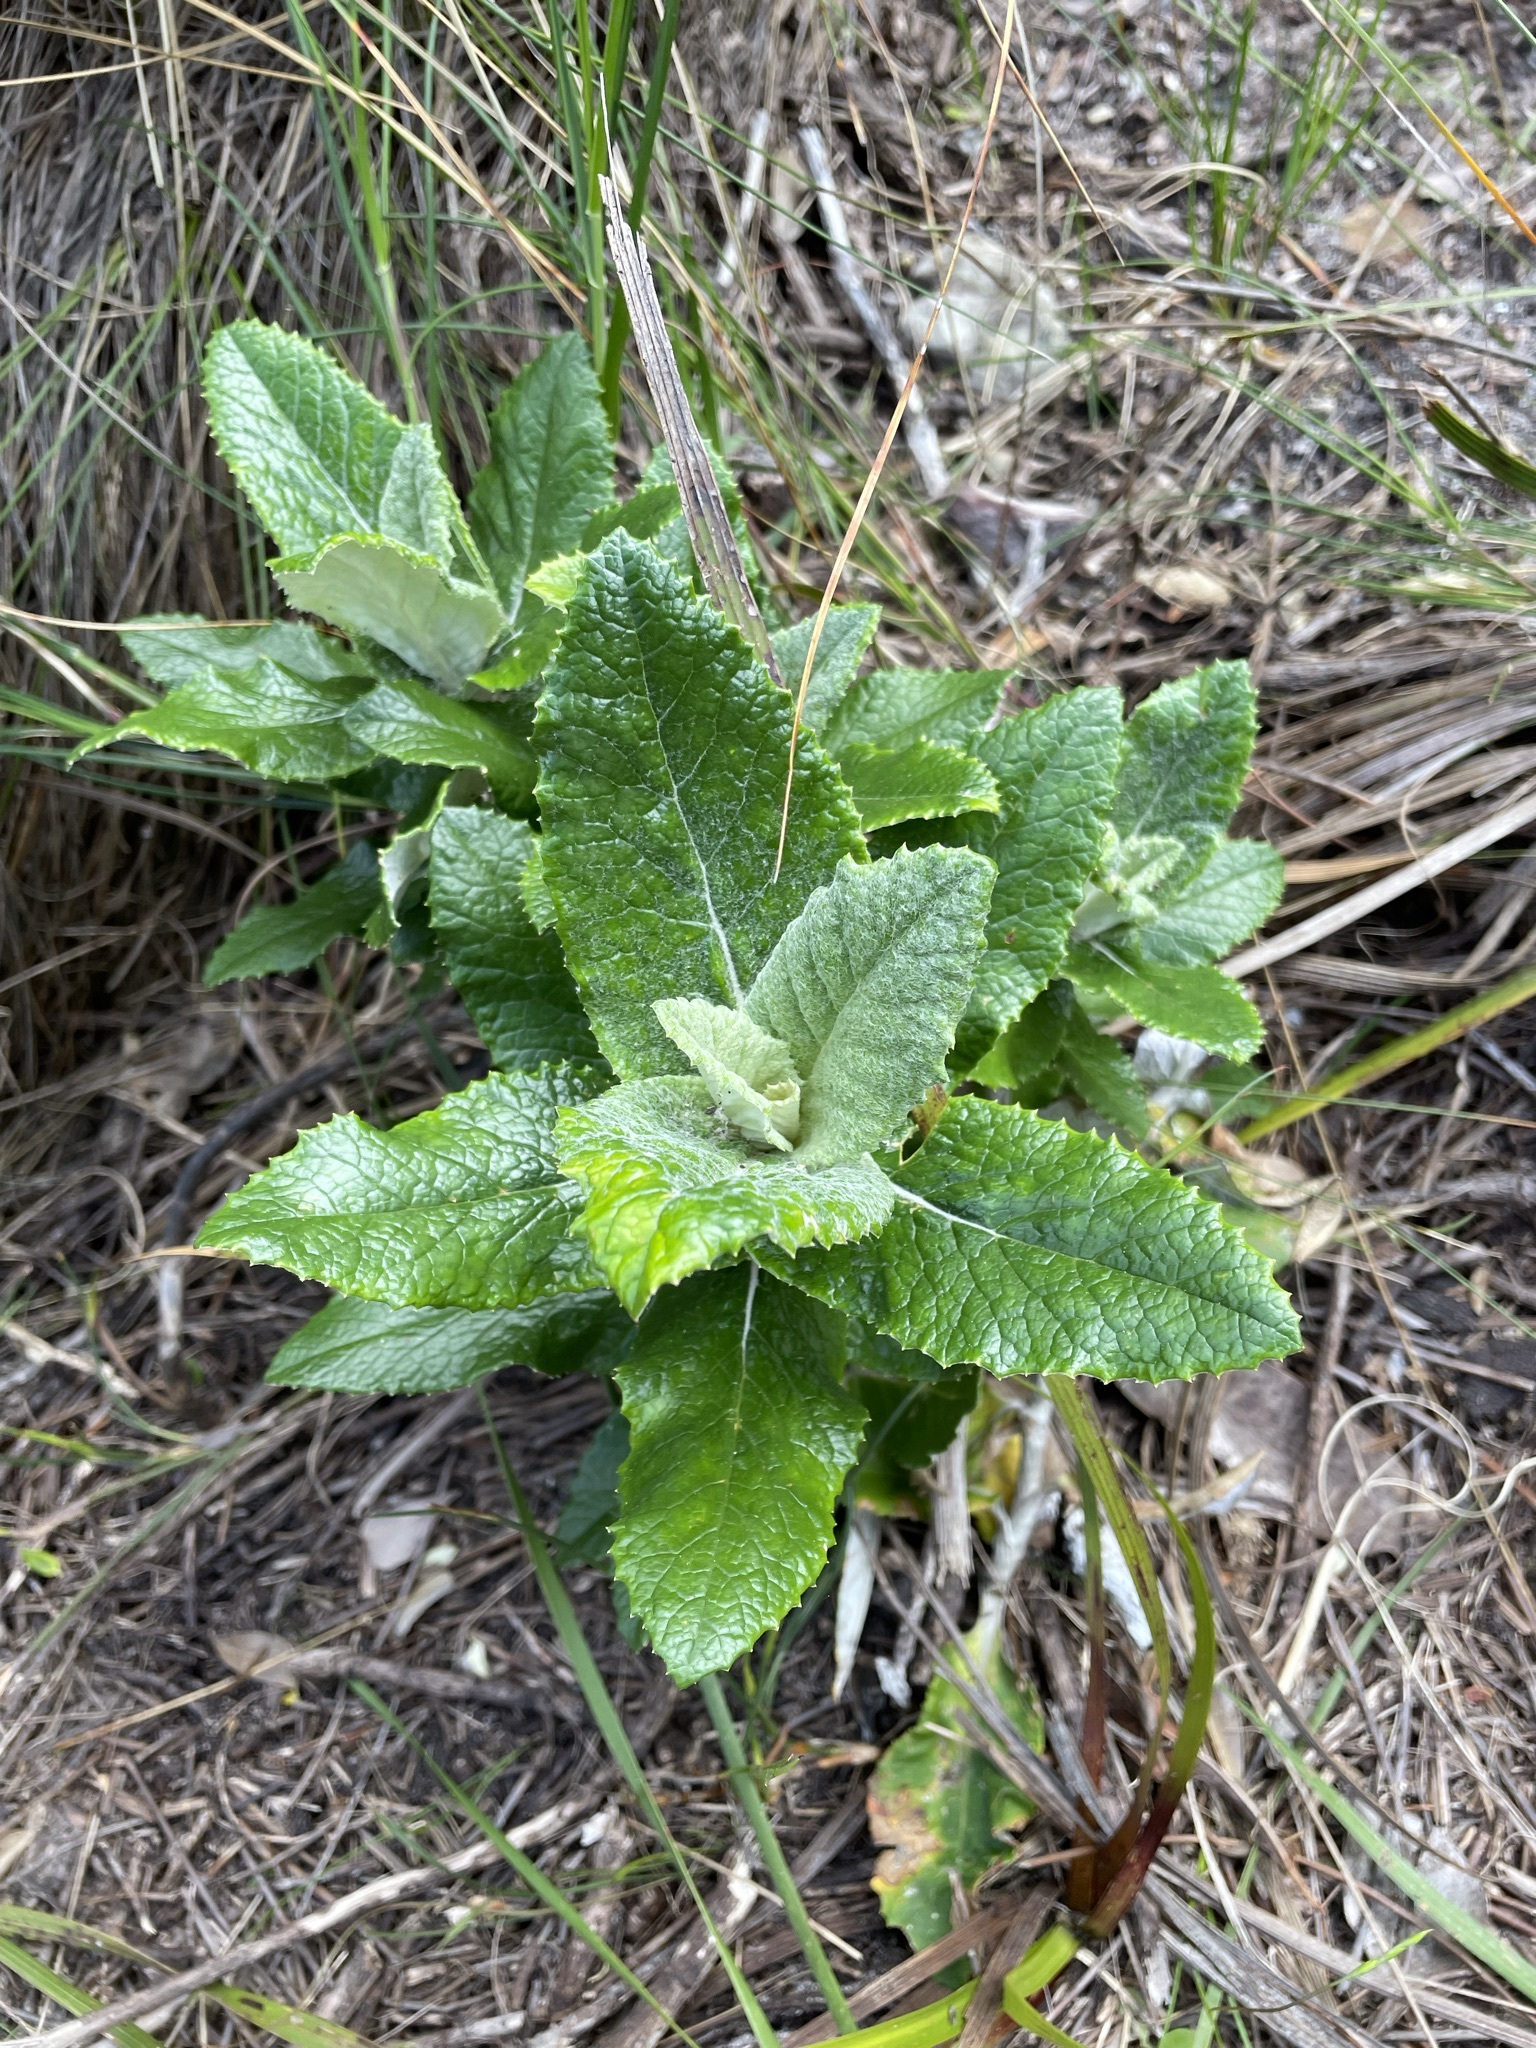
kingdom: Plantae
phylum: Tracheophyta
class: Magnoliopsida
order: Apiales
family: Apiaceae
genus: Hermas
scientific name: Hermas villosa
